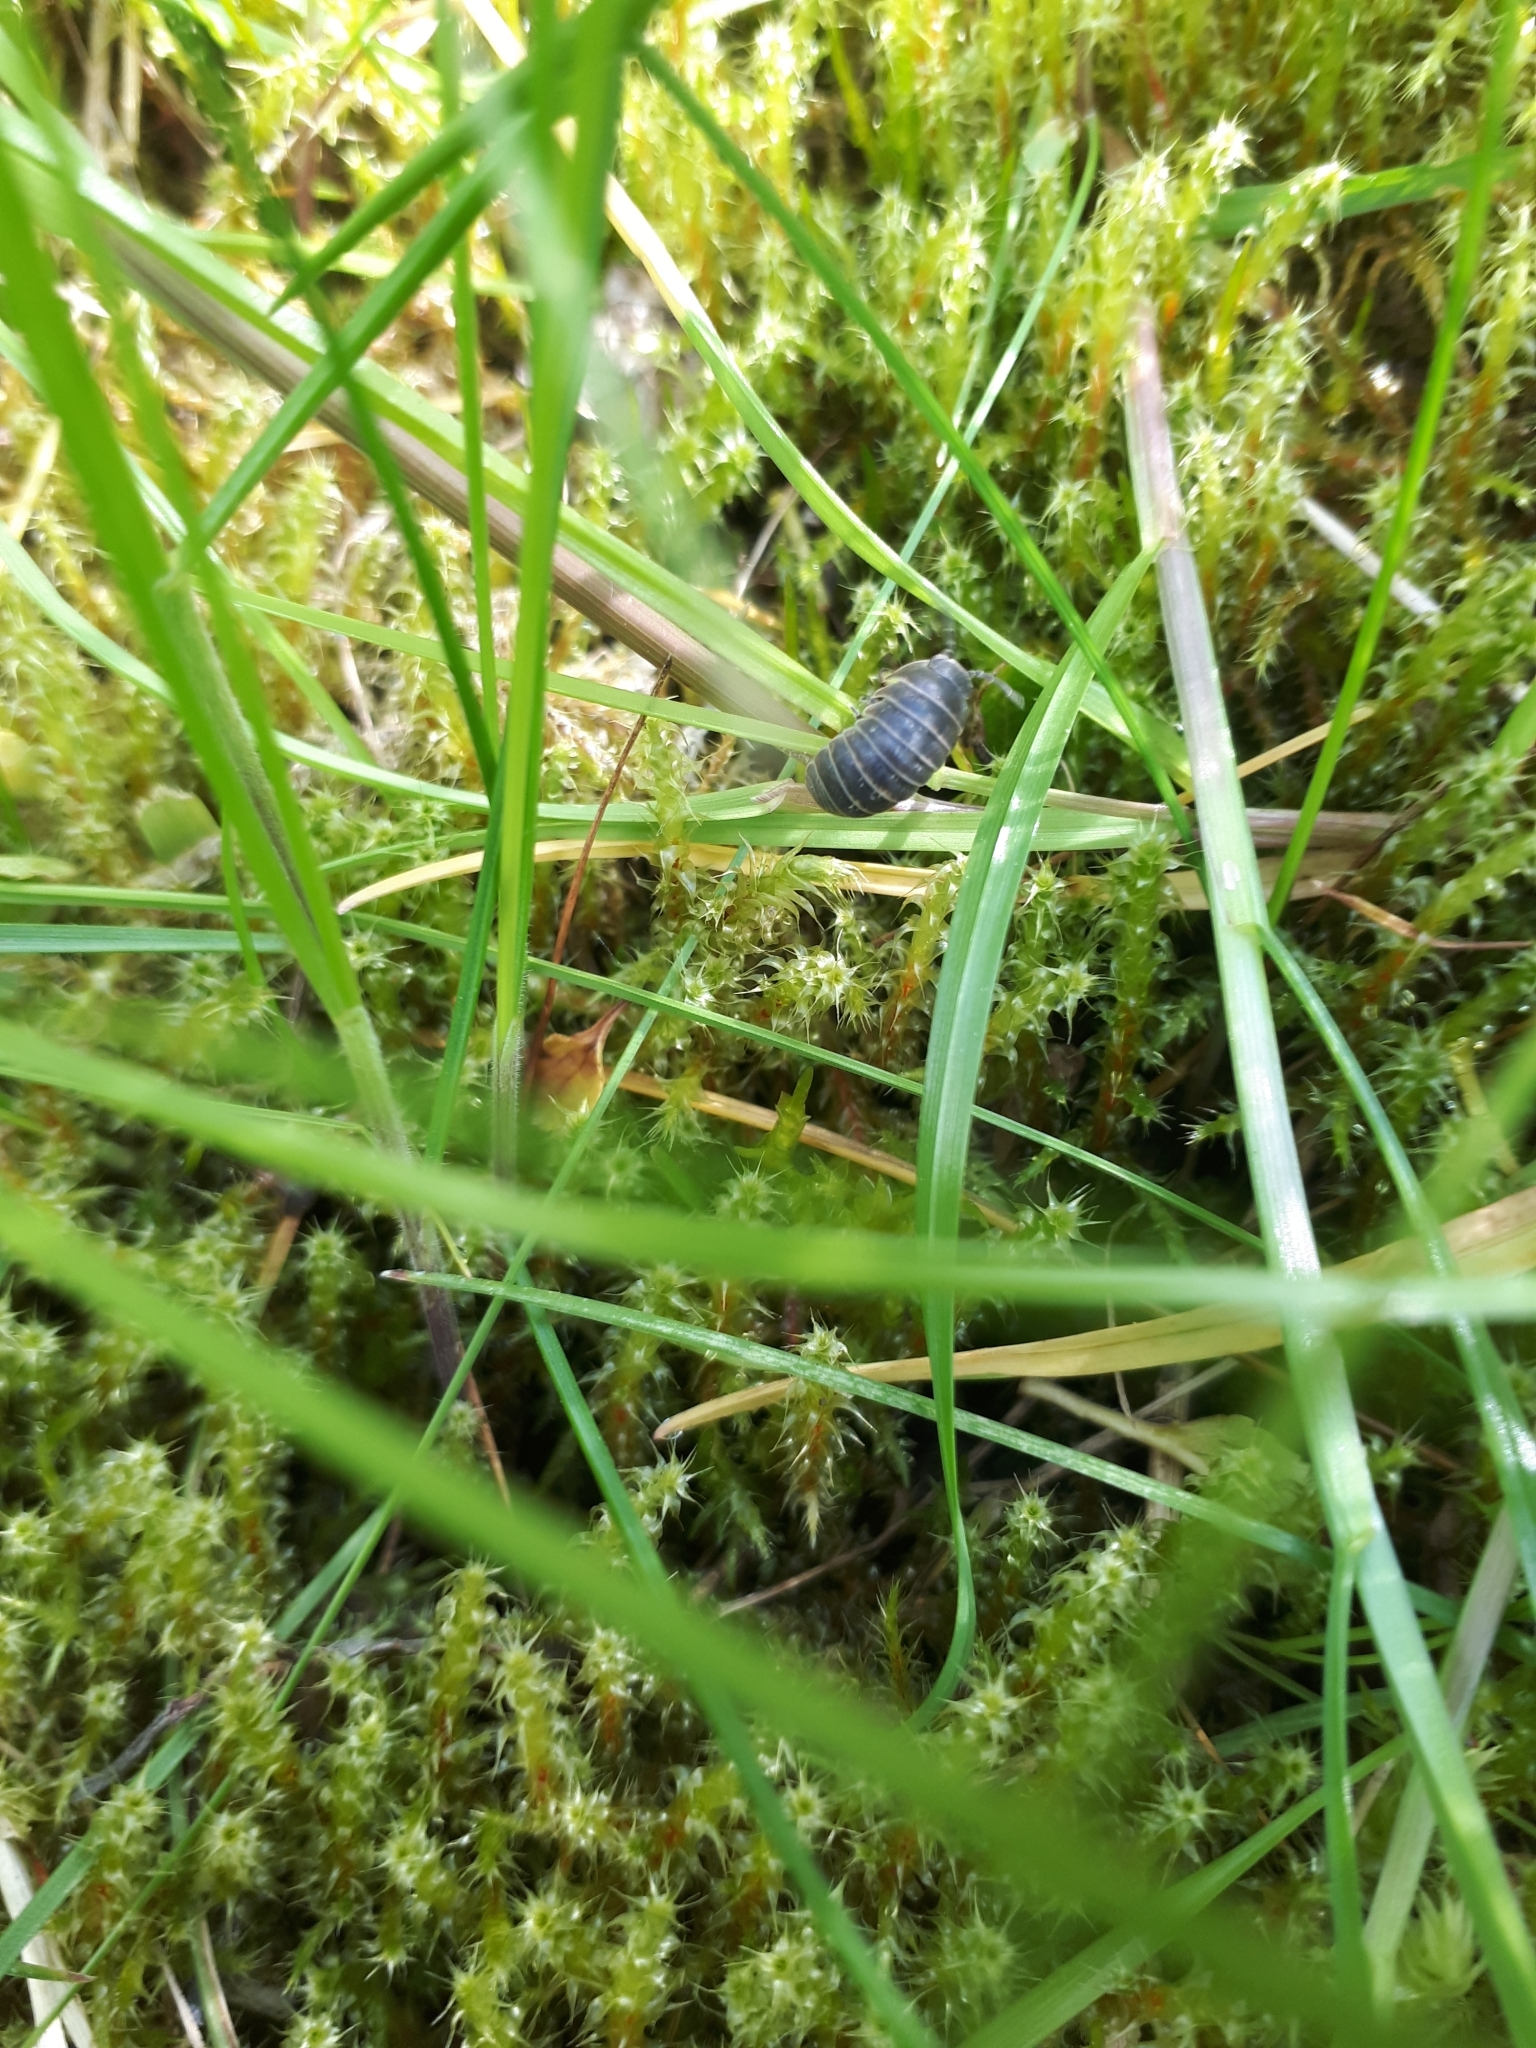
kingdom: Animalia
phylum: Arthropoda
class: Malacostraca
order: Isopoda
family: Armadillidiidae
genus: Armadillidium
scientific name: Armadillidium vulgare
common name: Common pill woodlouse
